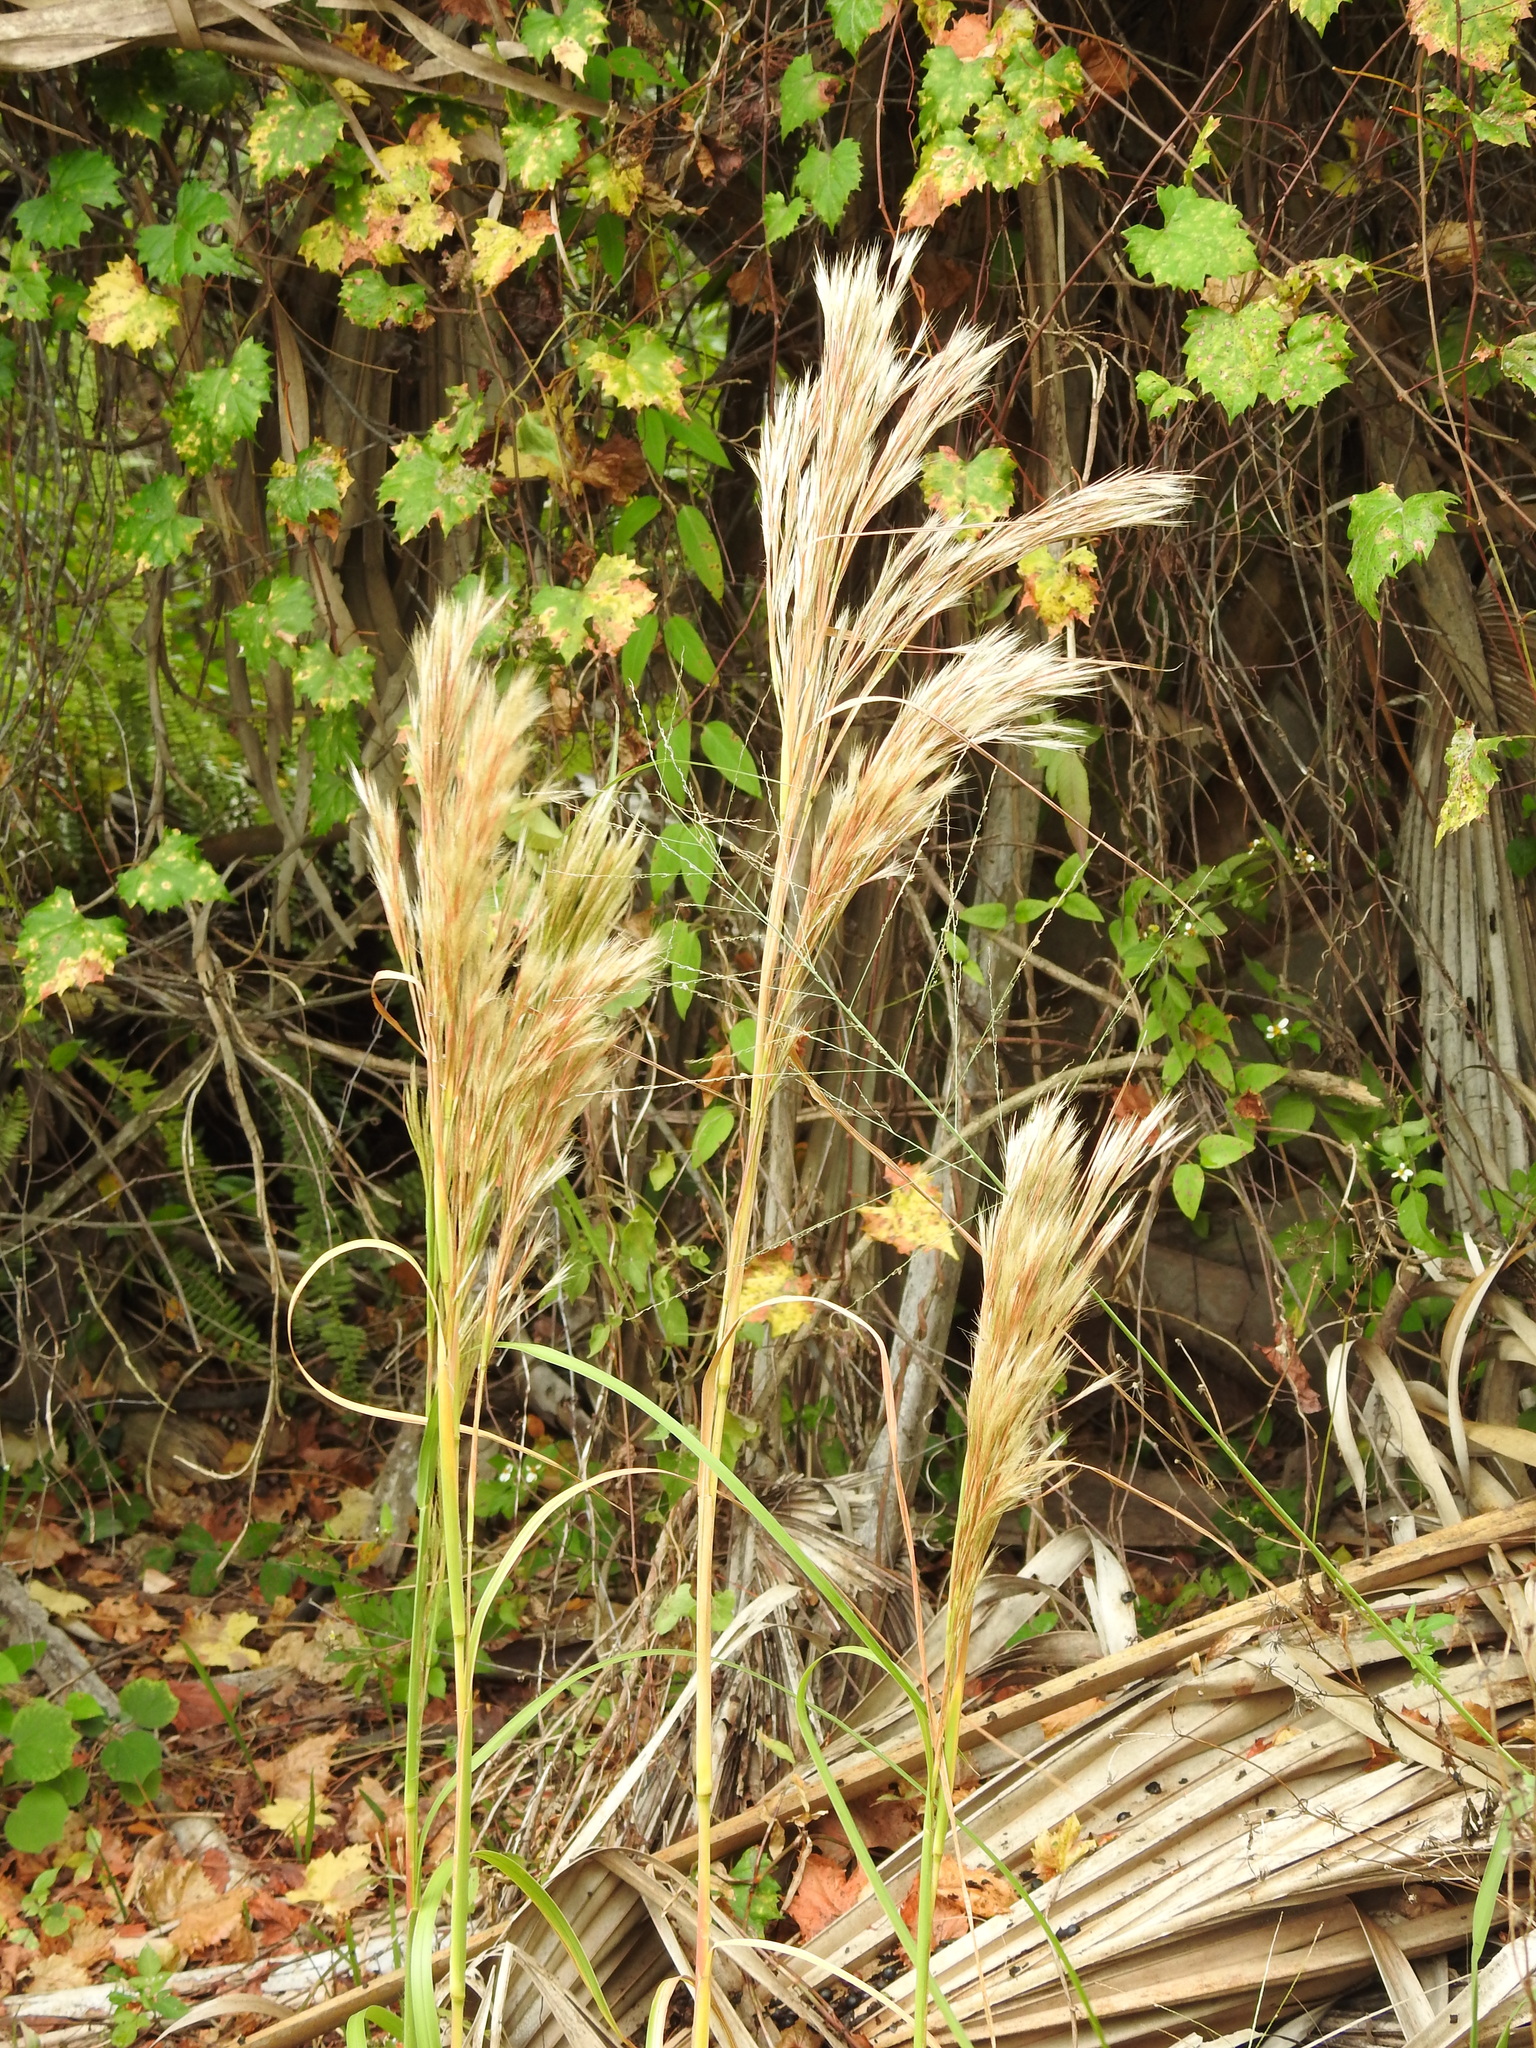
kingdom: Plantae
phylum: Tracheophyta
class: Liliopsida
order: Poales
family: Poaceae
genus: Andropogon
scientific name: Andropogon tenuispatheus
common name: Bushy bluestem
